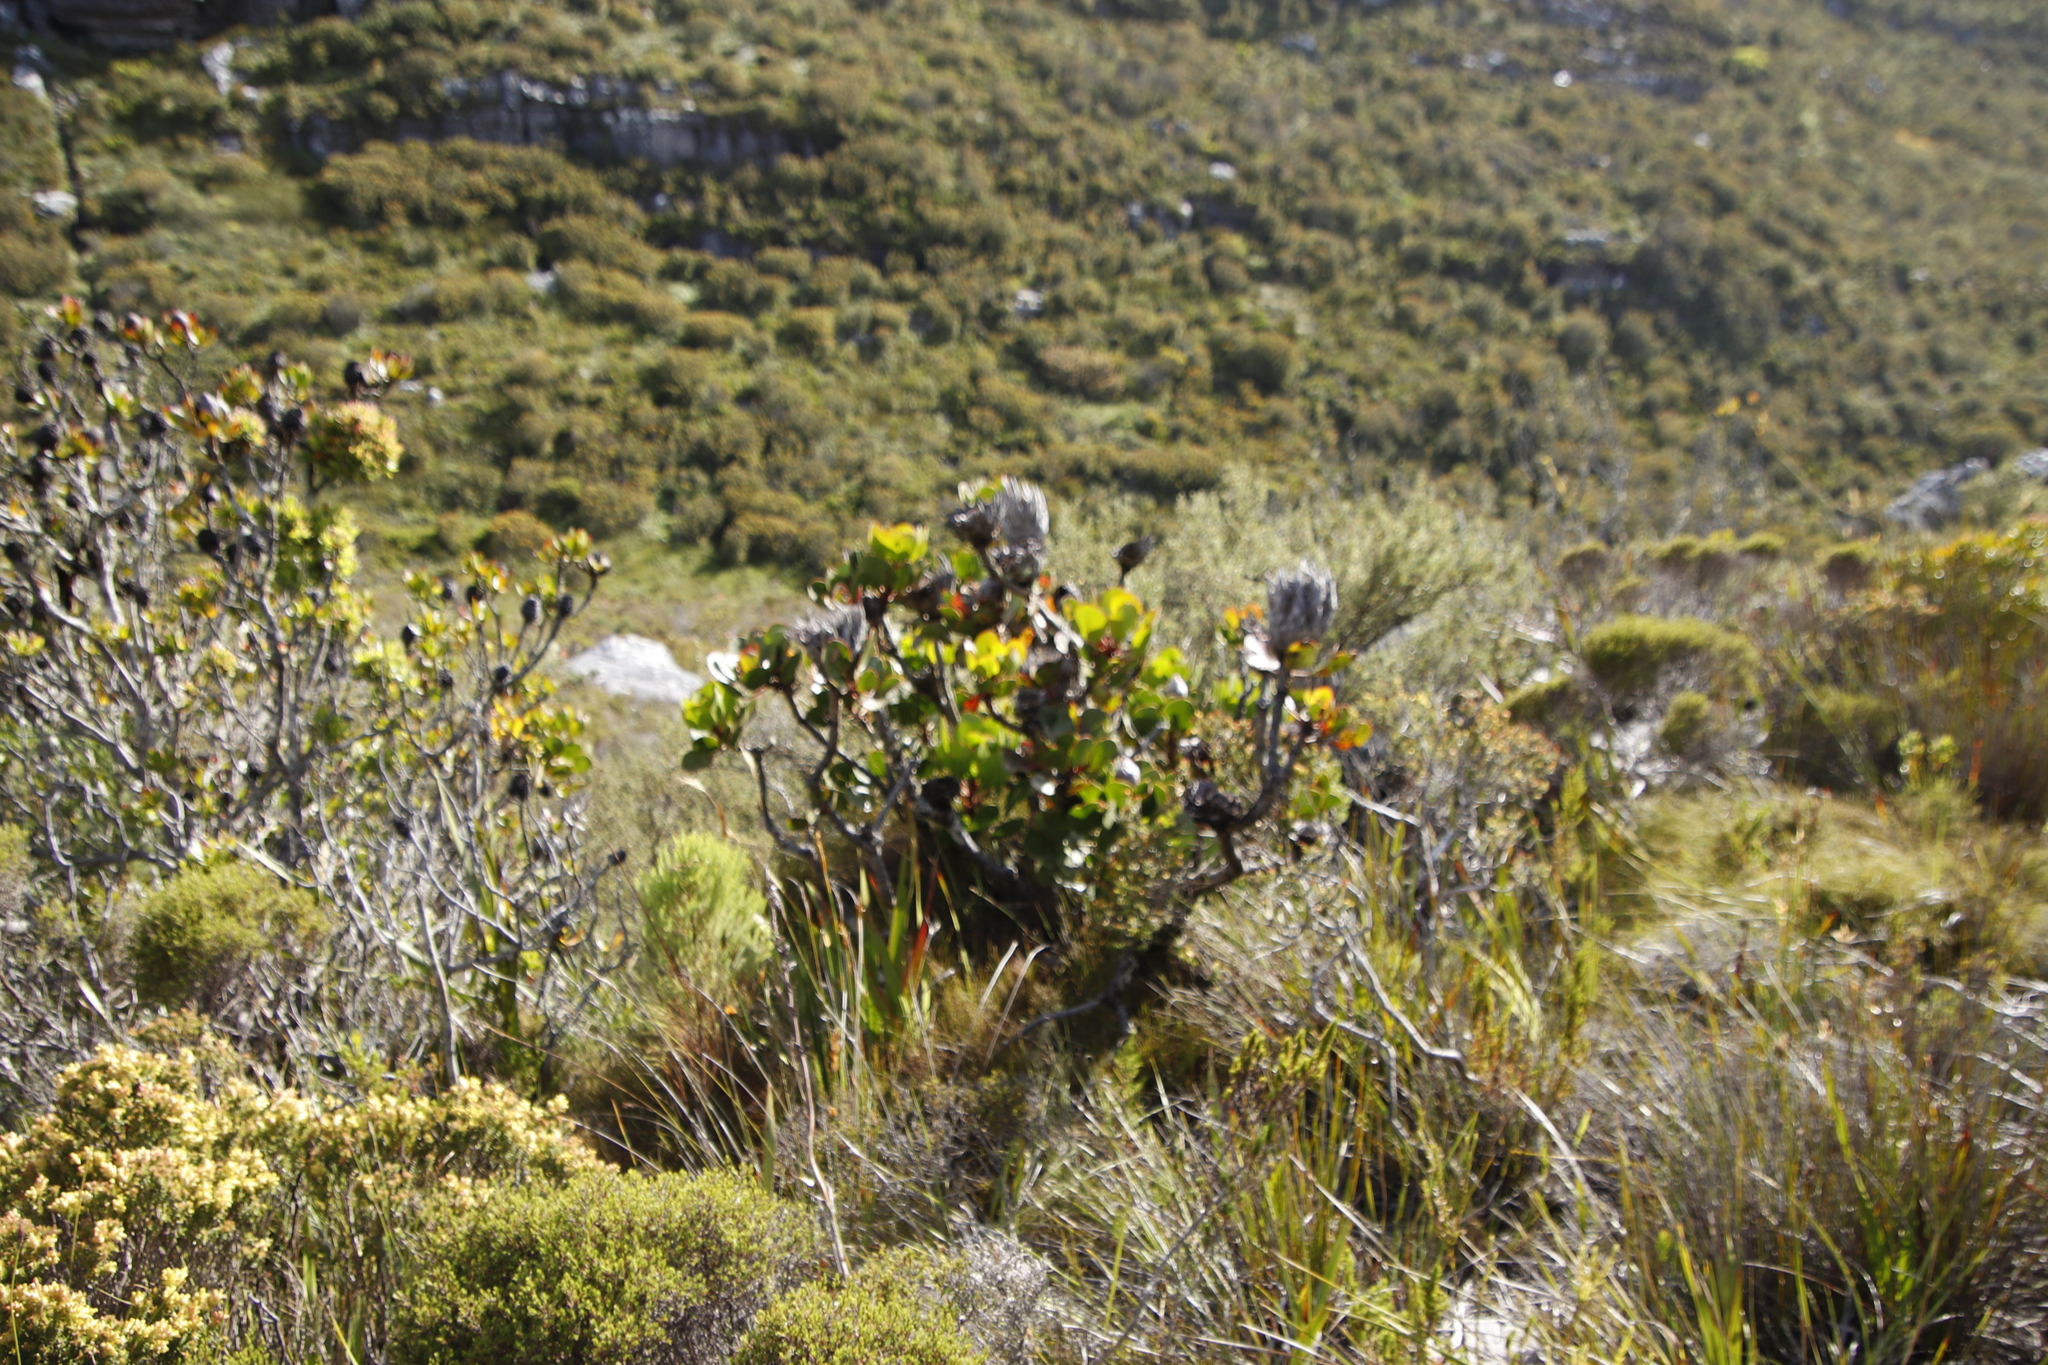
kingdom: Plantae
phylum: Tracheophyta
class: Magnoliopsida
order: Proteales
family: Proteaceae
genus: Protea
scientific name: Protea cynaroides
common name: King protea
